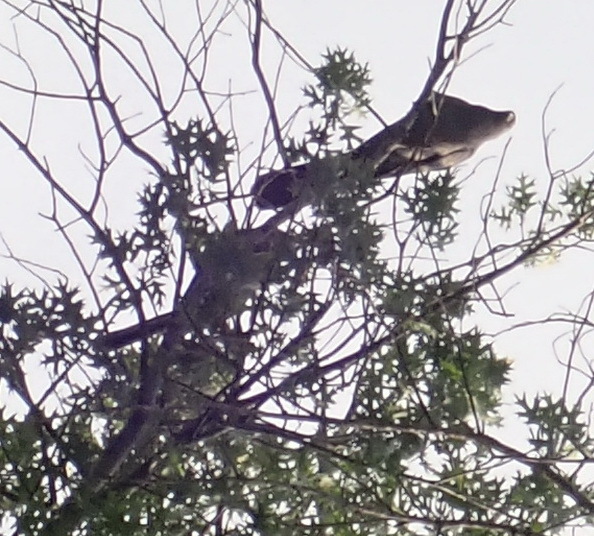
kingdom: Animalia
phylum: Chordata
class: Aves
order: Musophagiformes
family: Musophagidae
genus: Corythaixoides
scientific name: Corythaixoides concolor
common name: Grey go-away-bird
